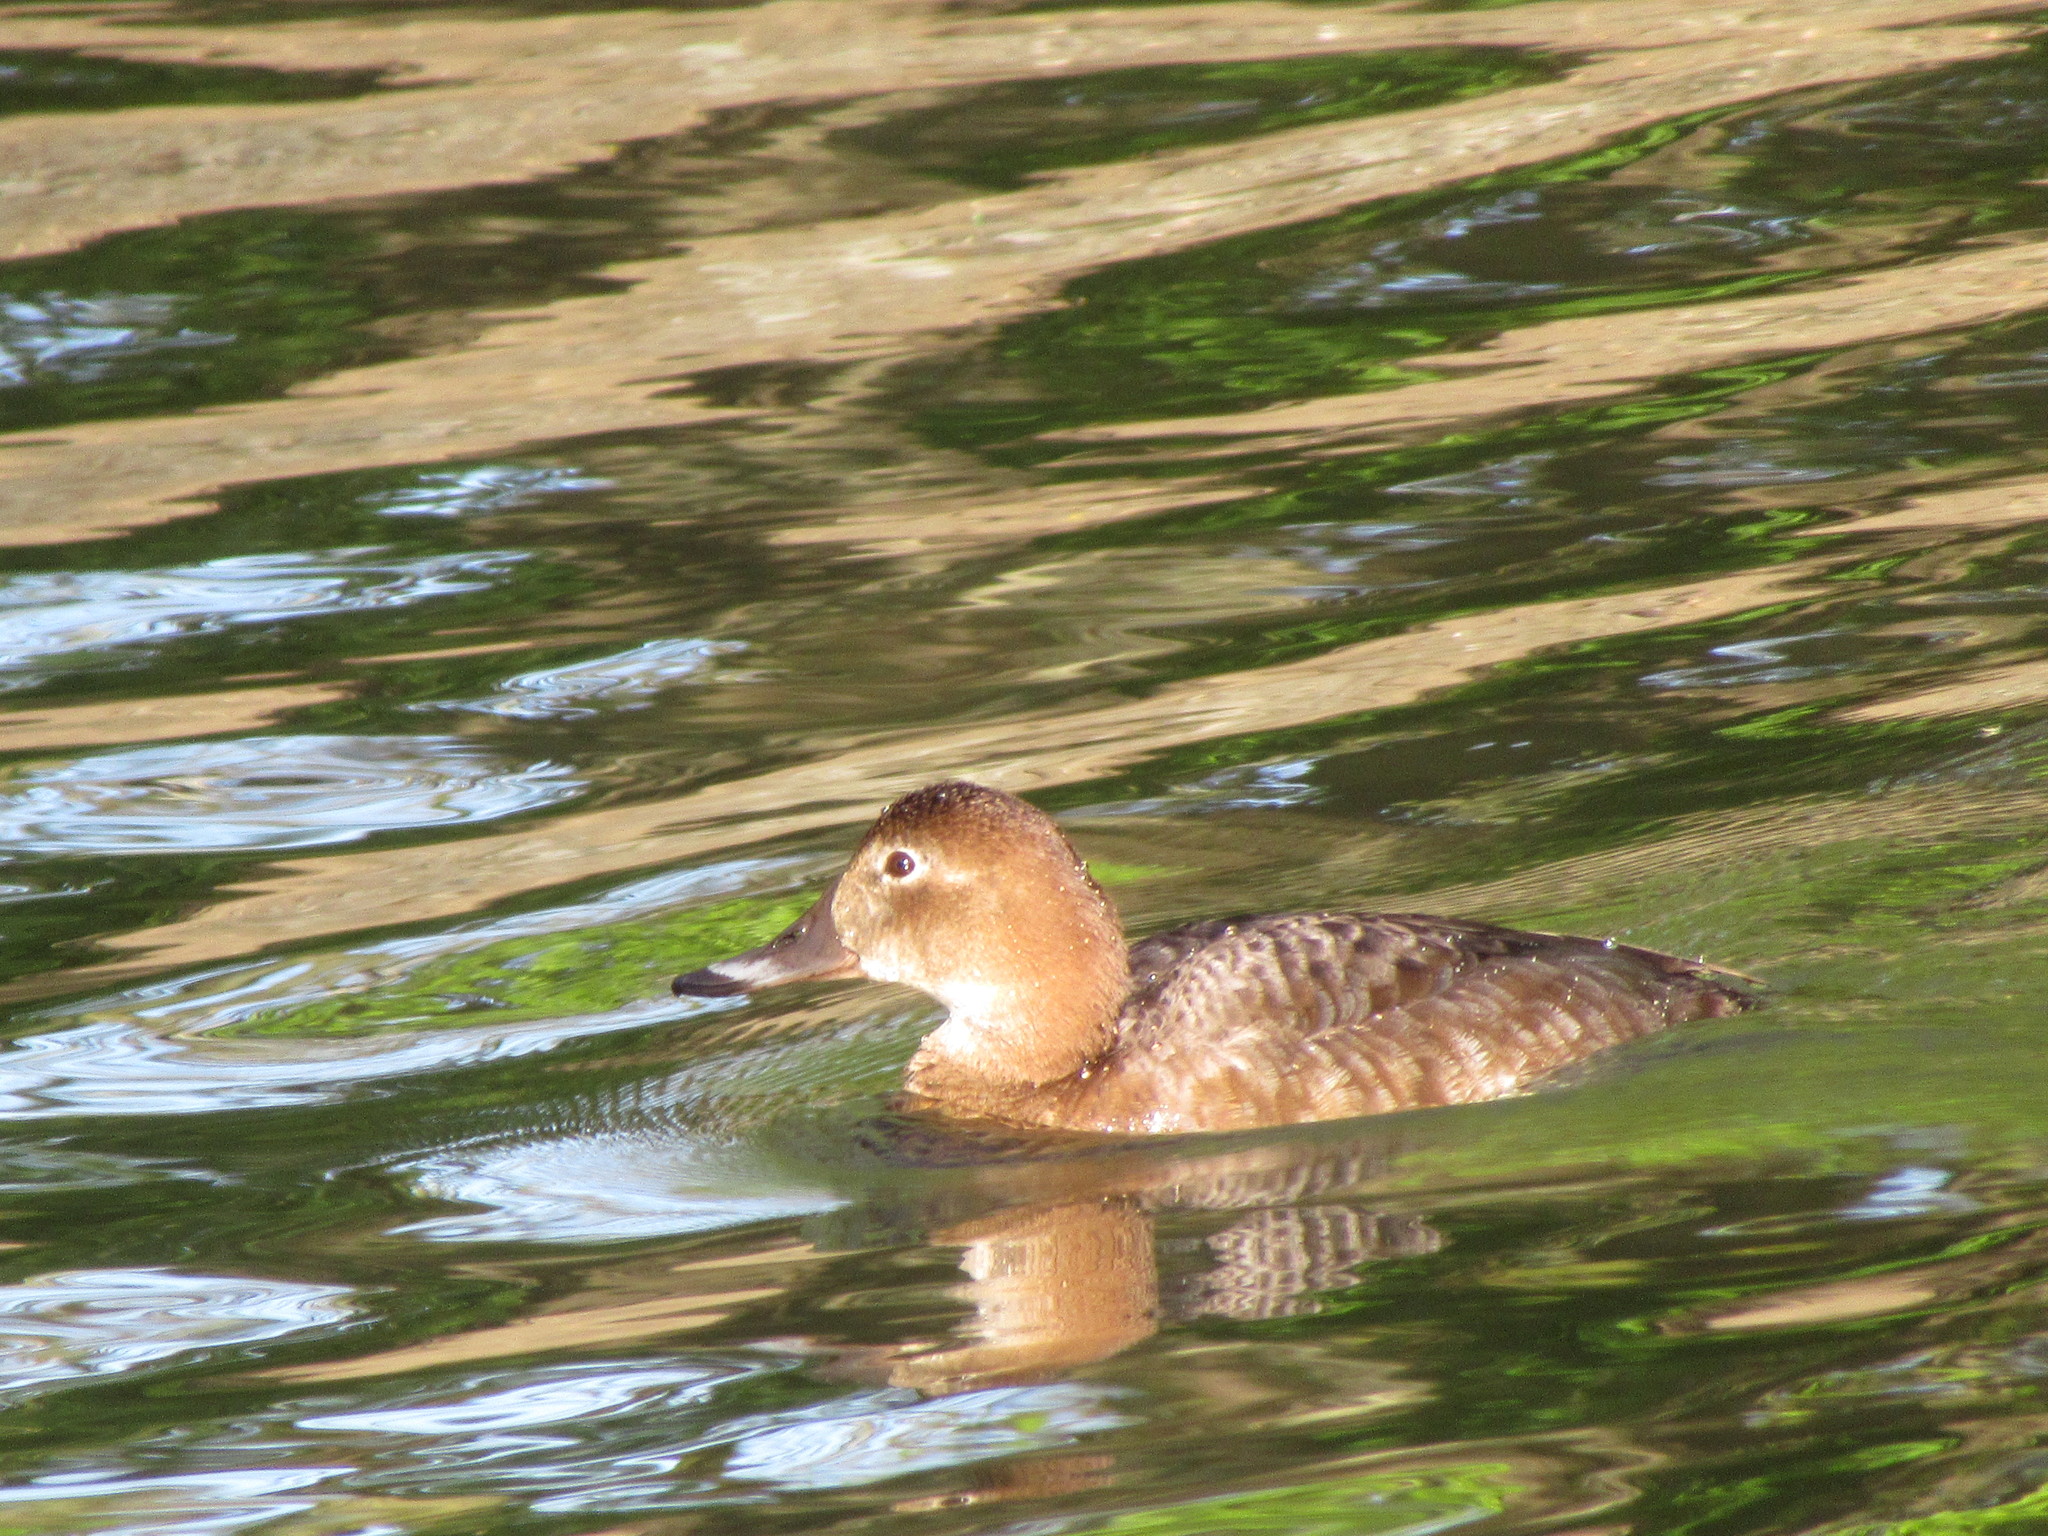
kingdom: Animalia
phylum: Chordata
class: Aves
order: Anseriformes
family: Anatidae
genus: Aythya
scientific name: Aythya ferina
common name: Common pochard
